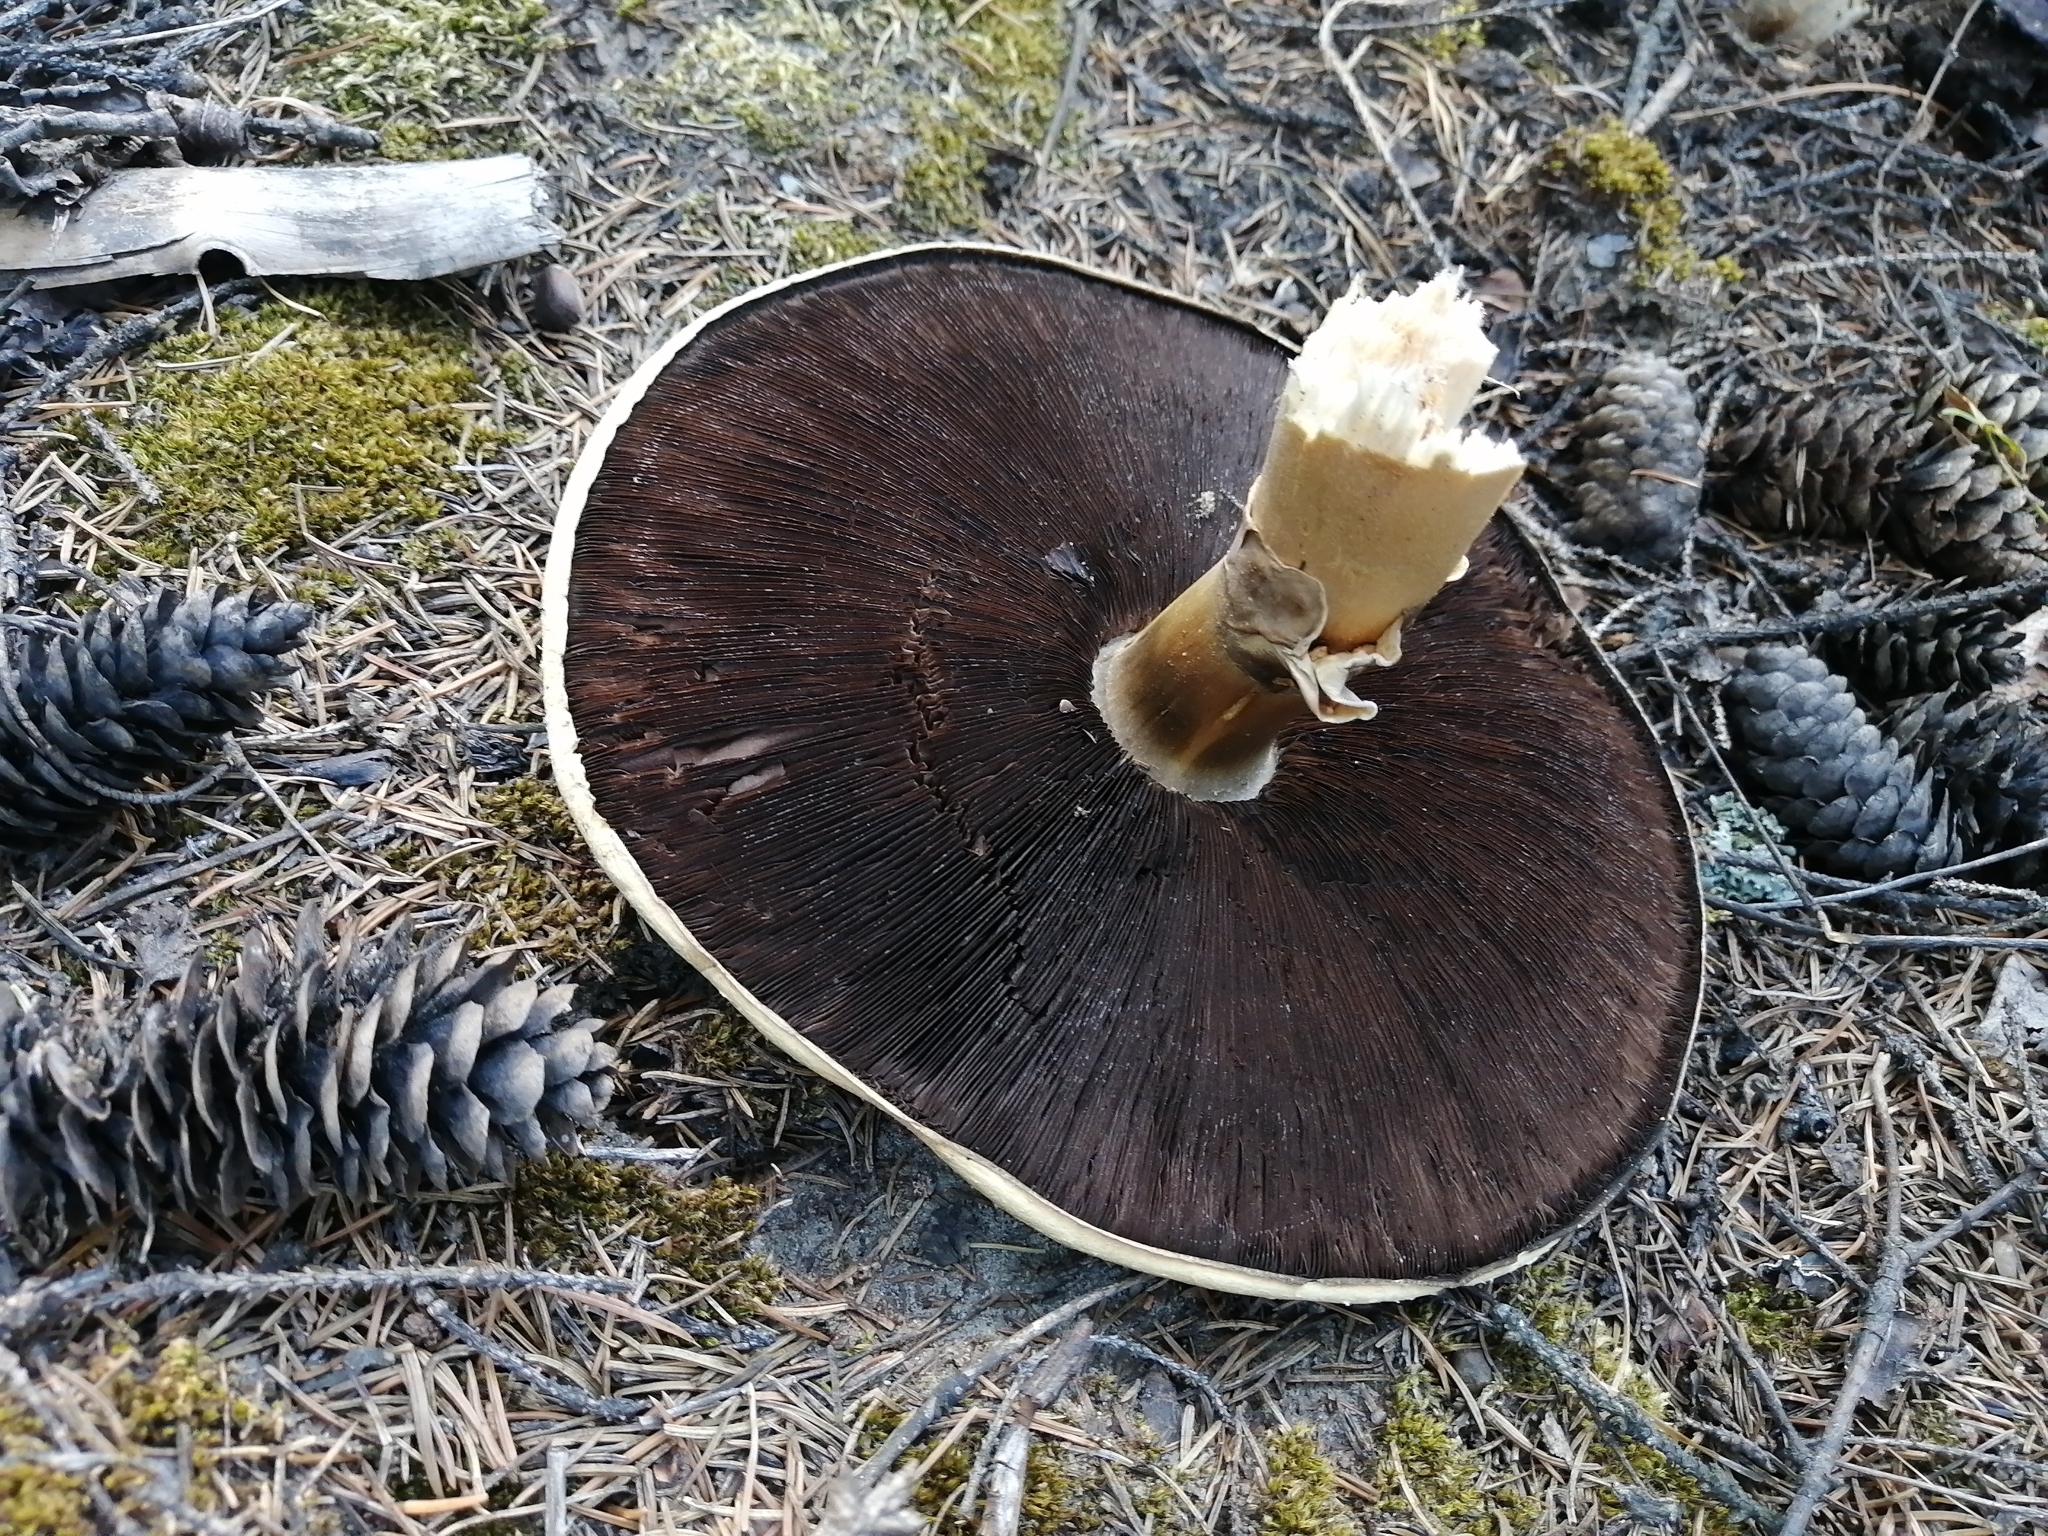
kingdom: Fungi
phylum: Basidiomycota
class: Agaricomycetes
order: Agaricales
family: Agaricaceae
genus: Agaricus
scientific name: Agaricus sylvicola
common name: Wood mushroom
